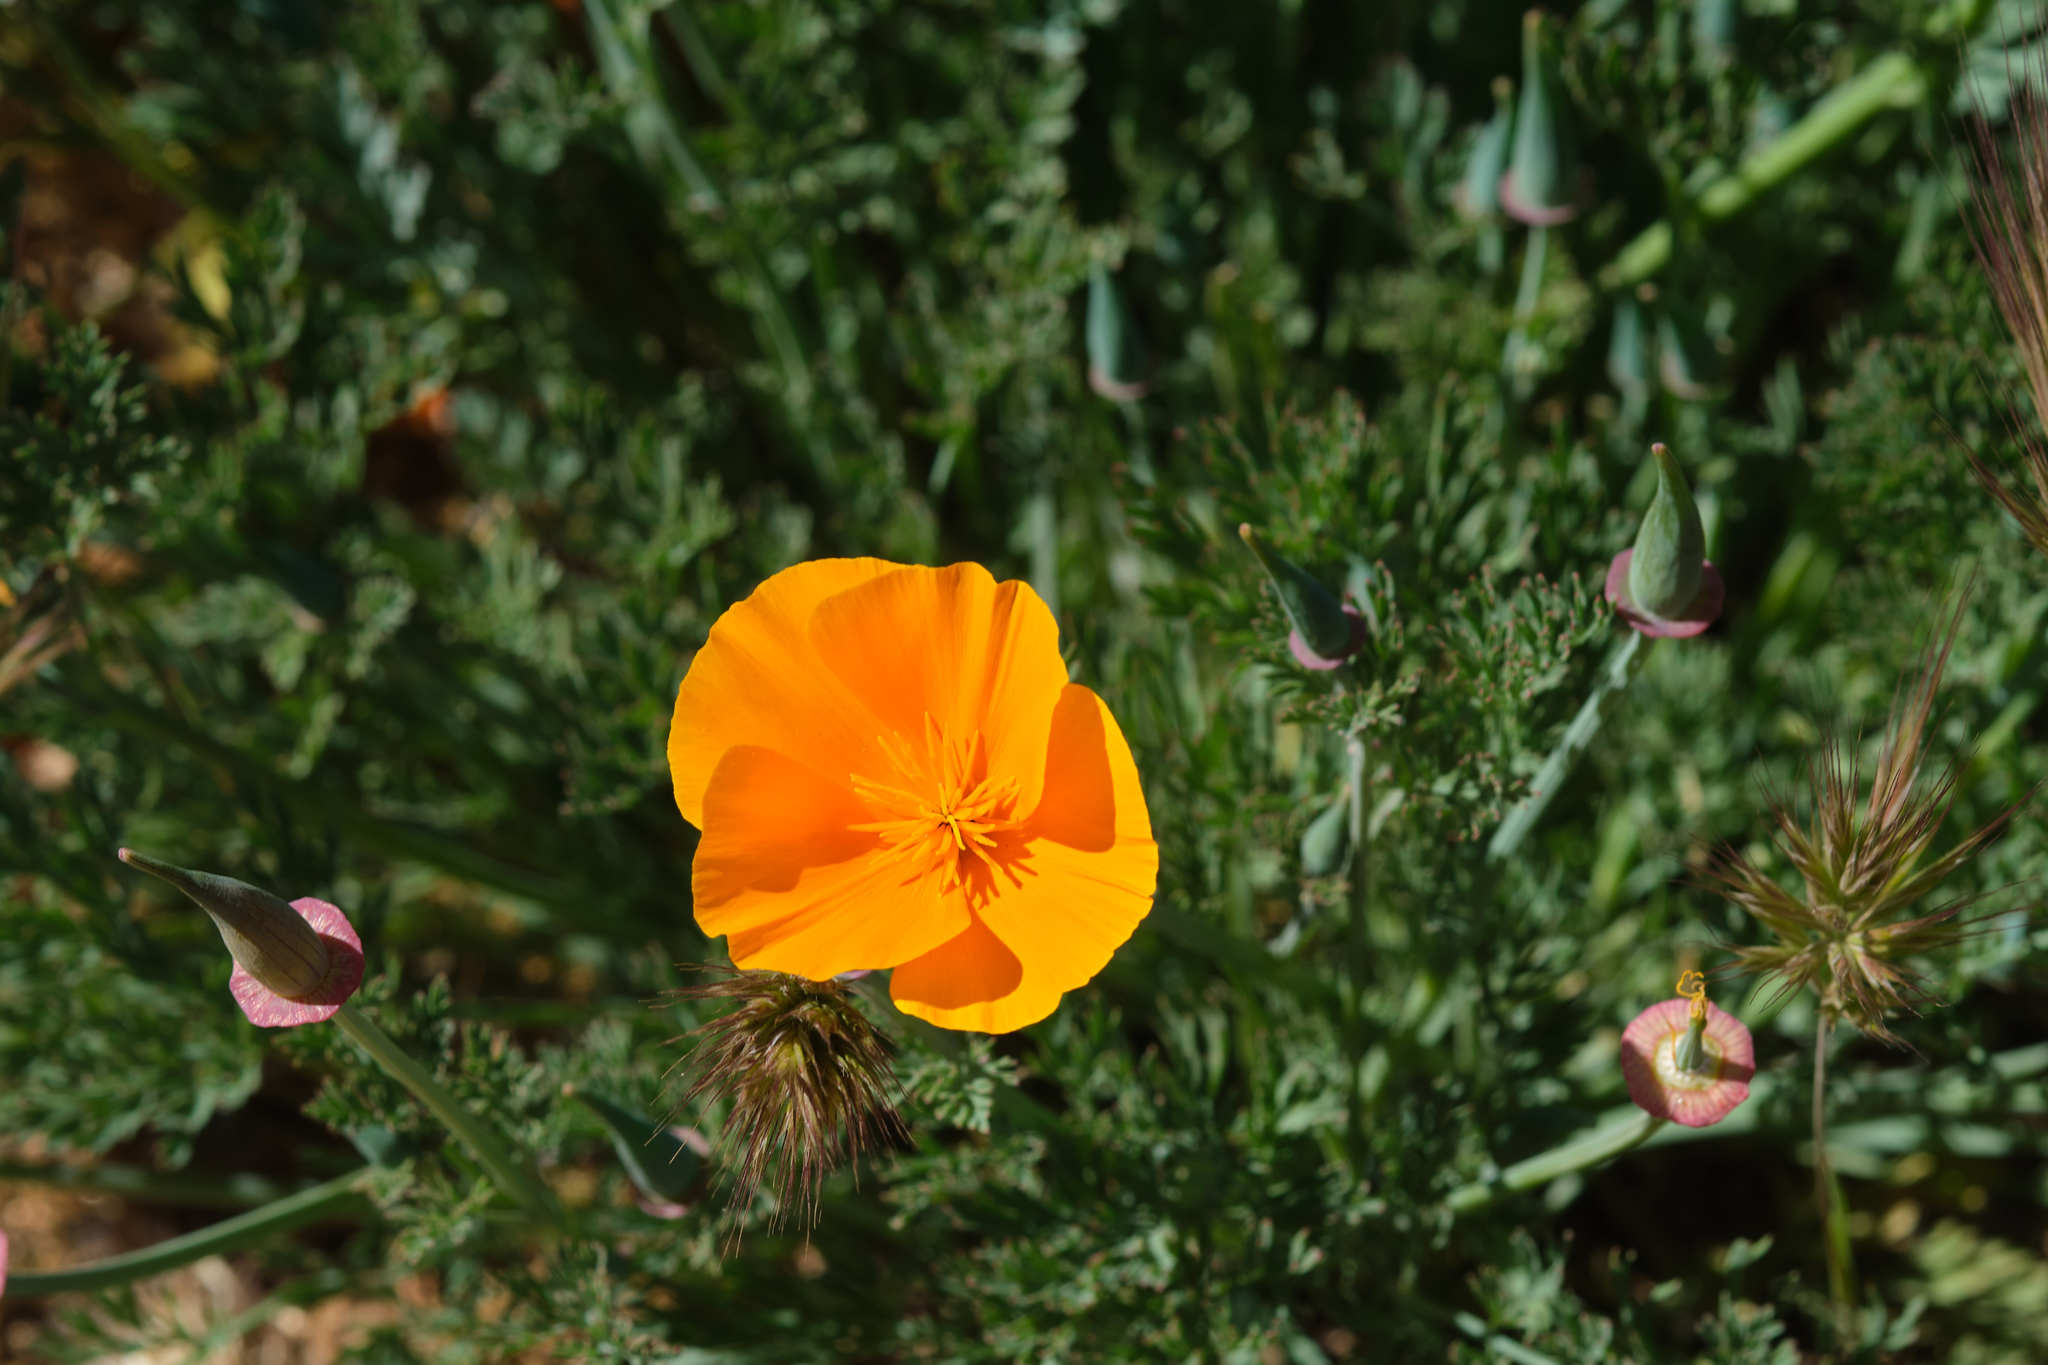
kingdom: Plantae
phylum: Tracheophyta
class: Magnoliopsida
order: Ranunculales
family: Papaveraceae
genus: Eschscholzia
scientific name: Eschscholzia californica
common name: California poppy
